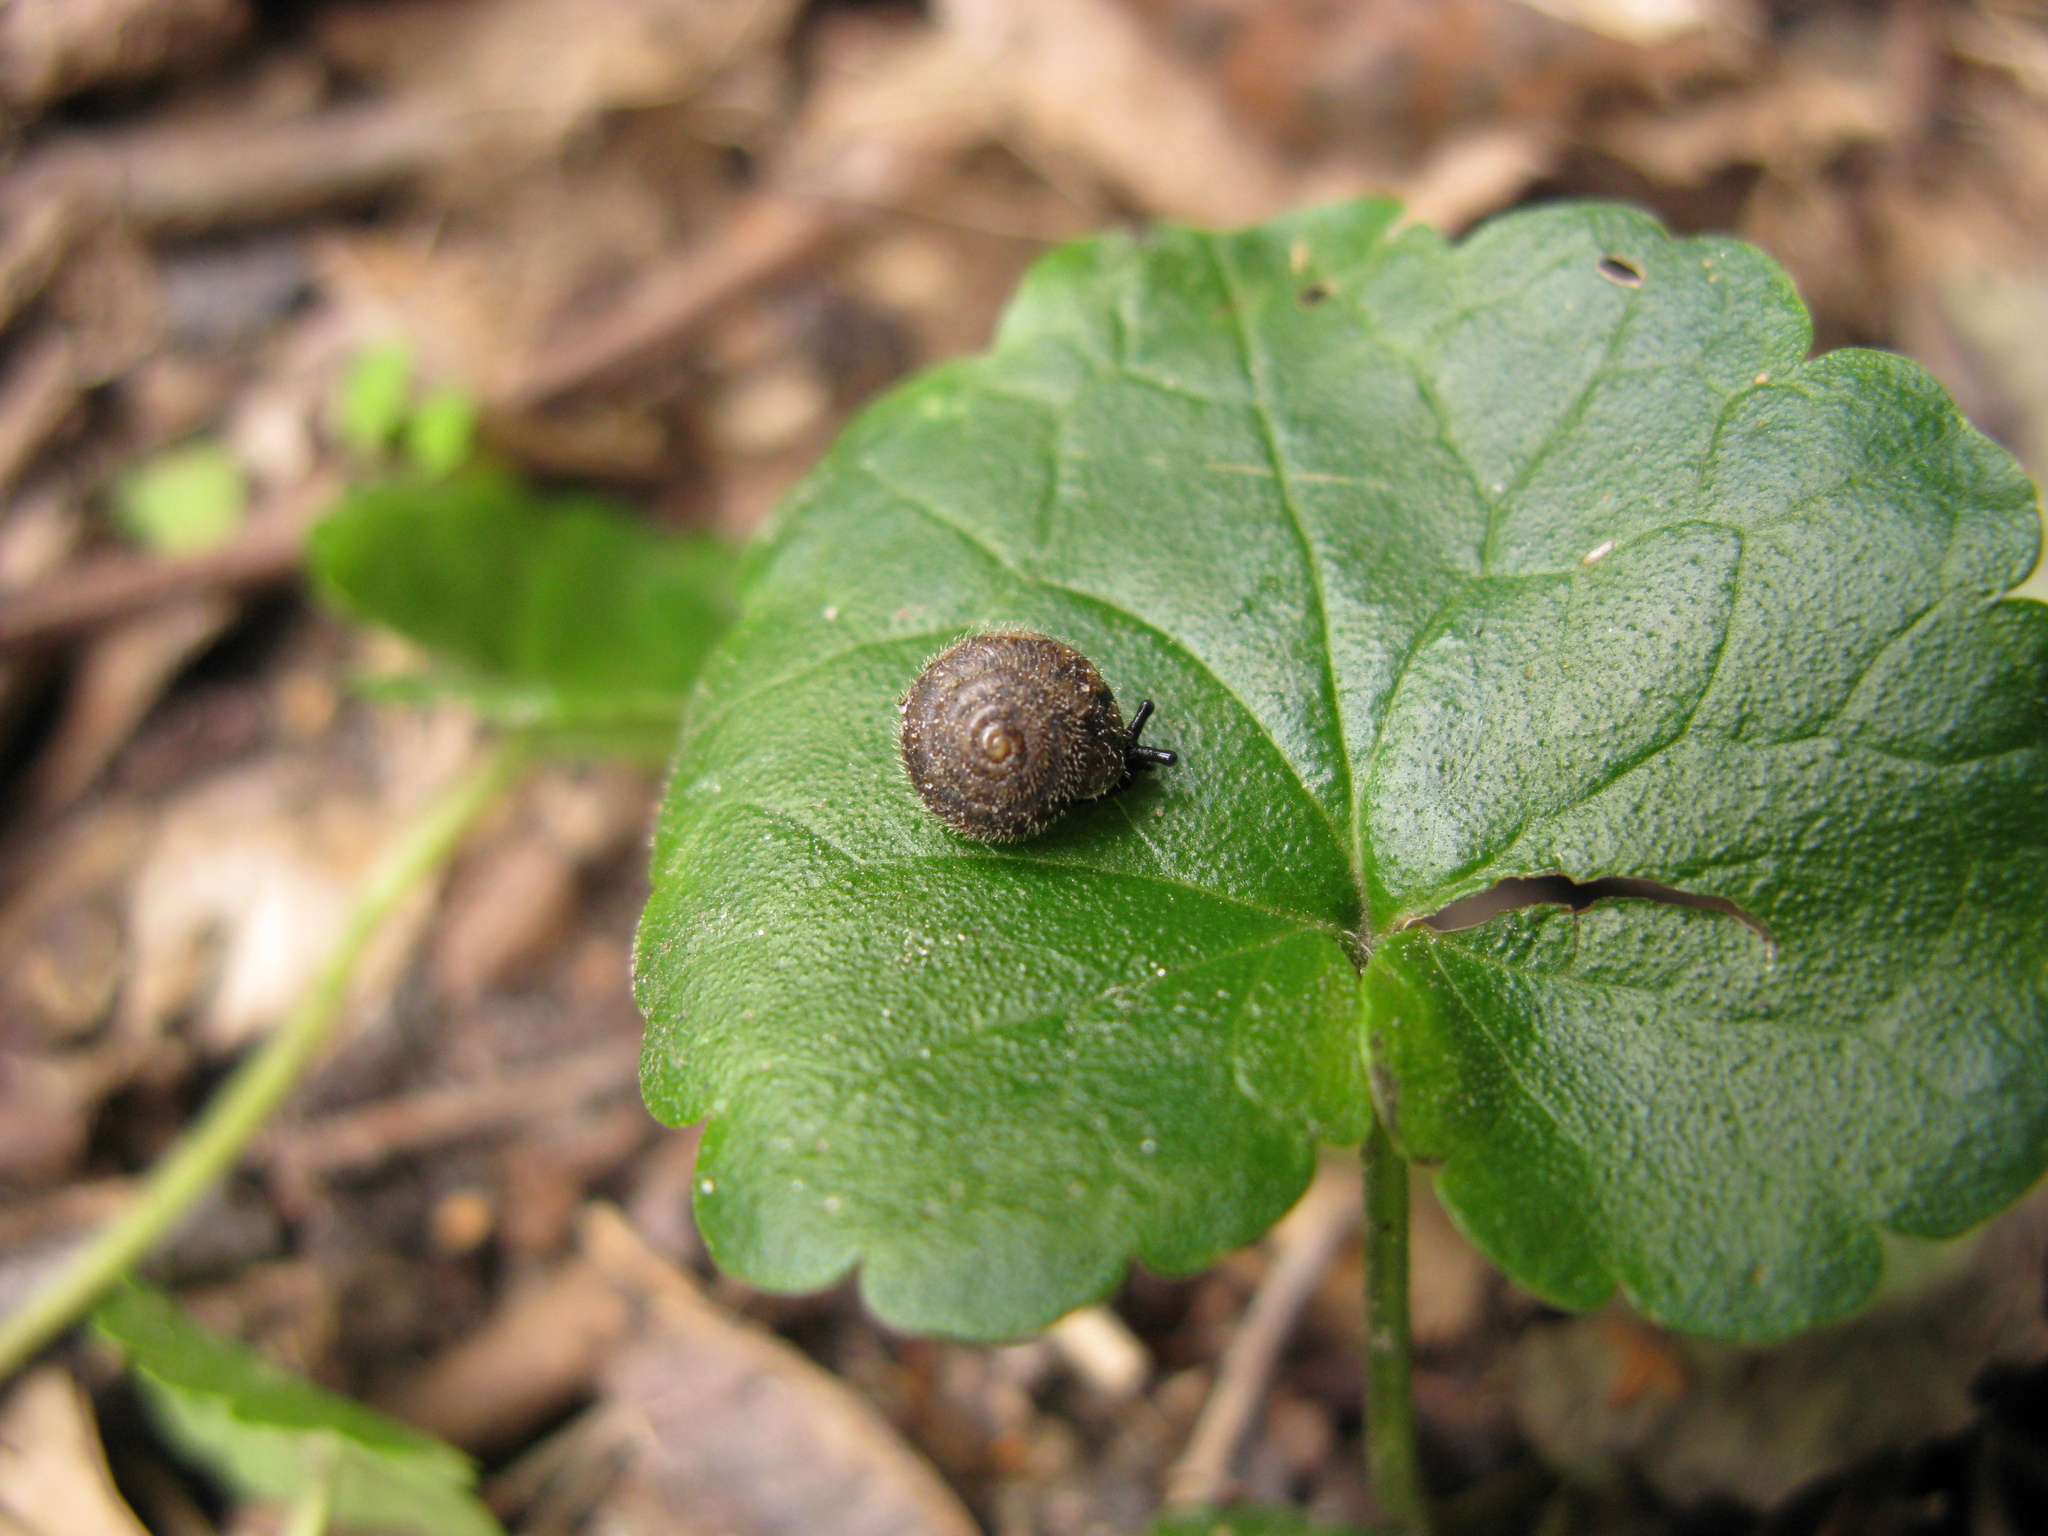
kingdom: Animalia
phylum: Mollusca
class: Gastropoda
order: Stylommatophora
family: Hygromiidae
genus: Pseudotrichia
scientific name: Pseudotrichia rubiginosa
